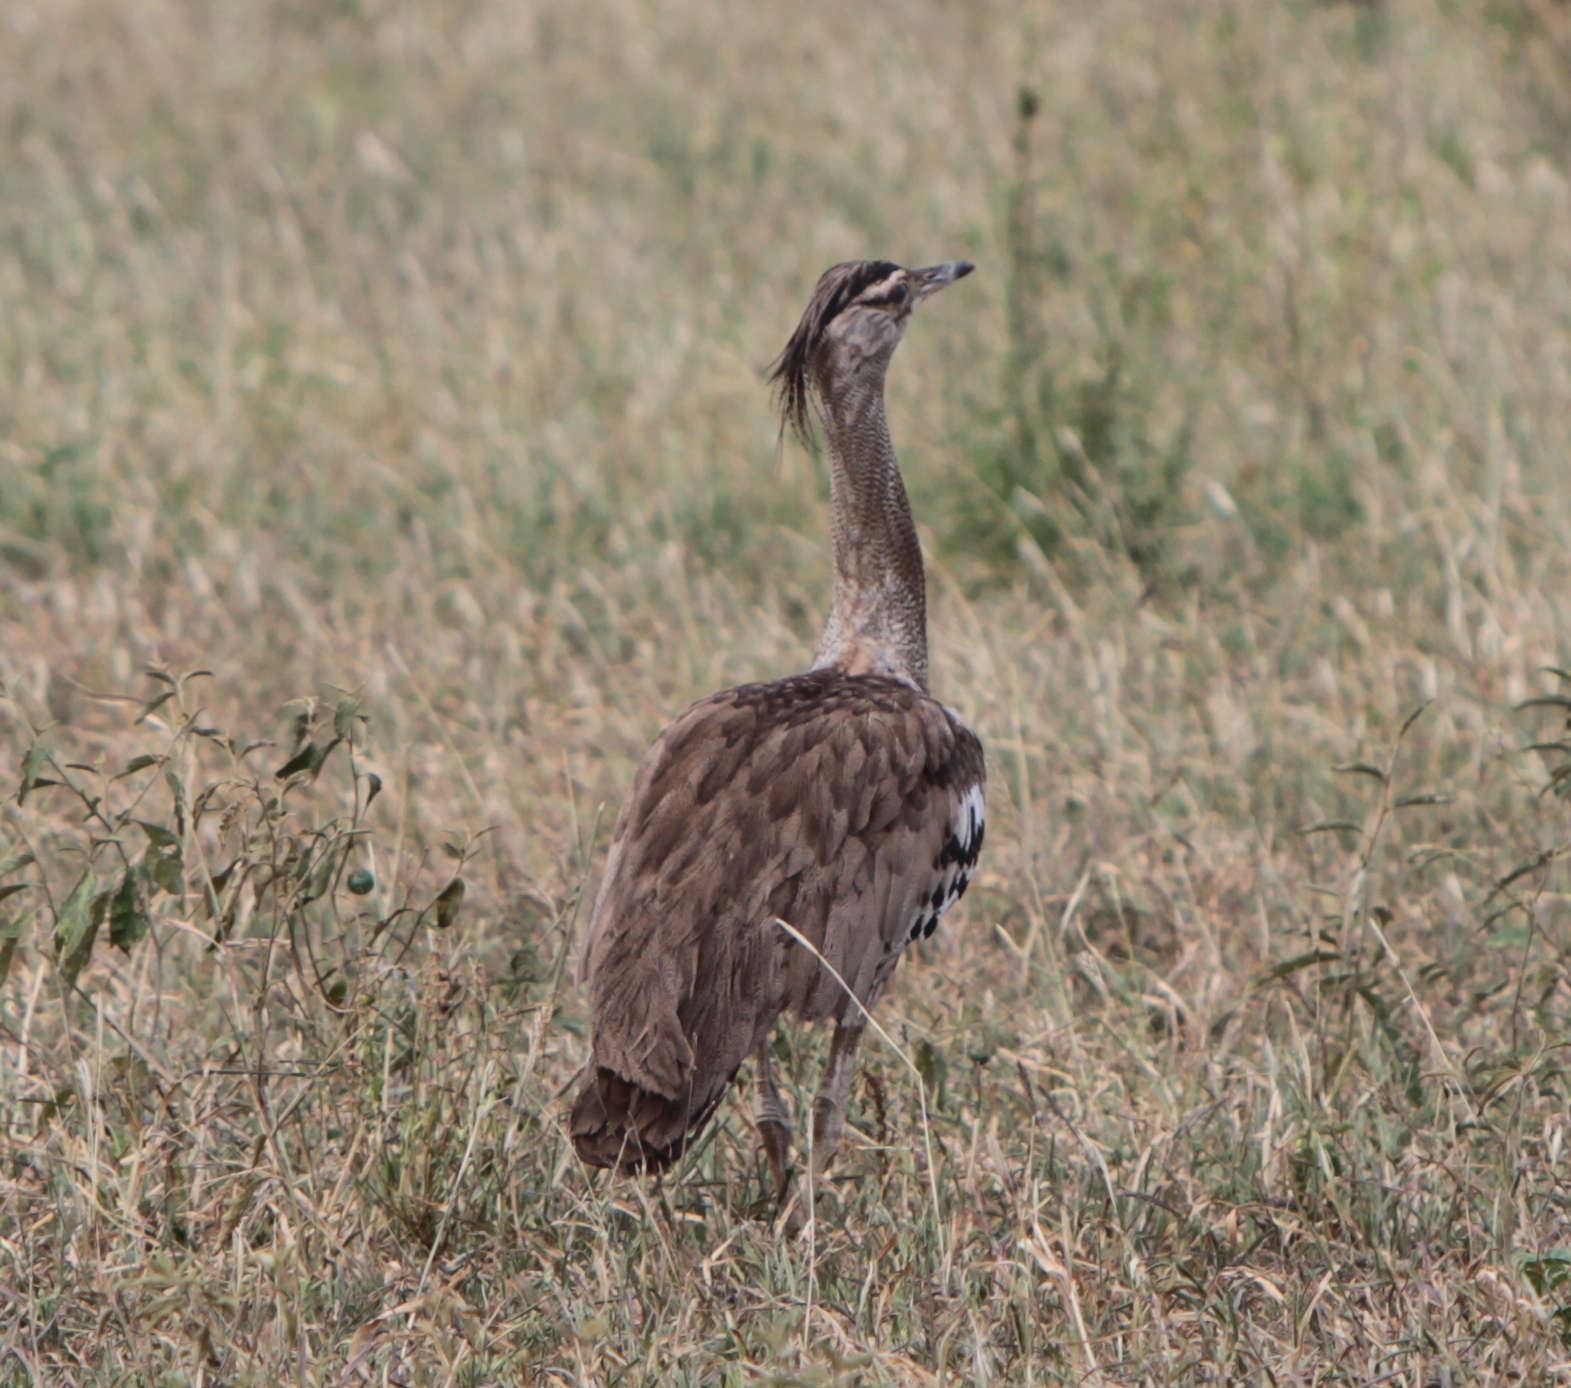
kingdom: Animalia
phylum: Chordata
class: Aves
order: Otidiformes
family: Otididae
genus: Ardeotis
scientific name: Ardeotis kori
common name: Kori bustard
